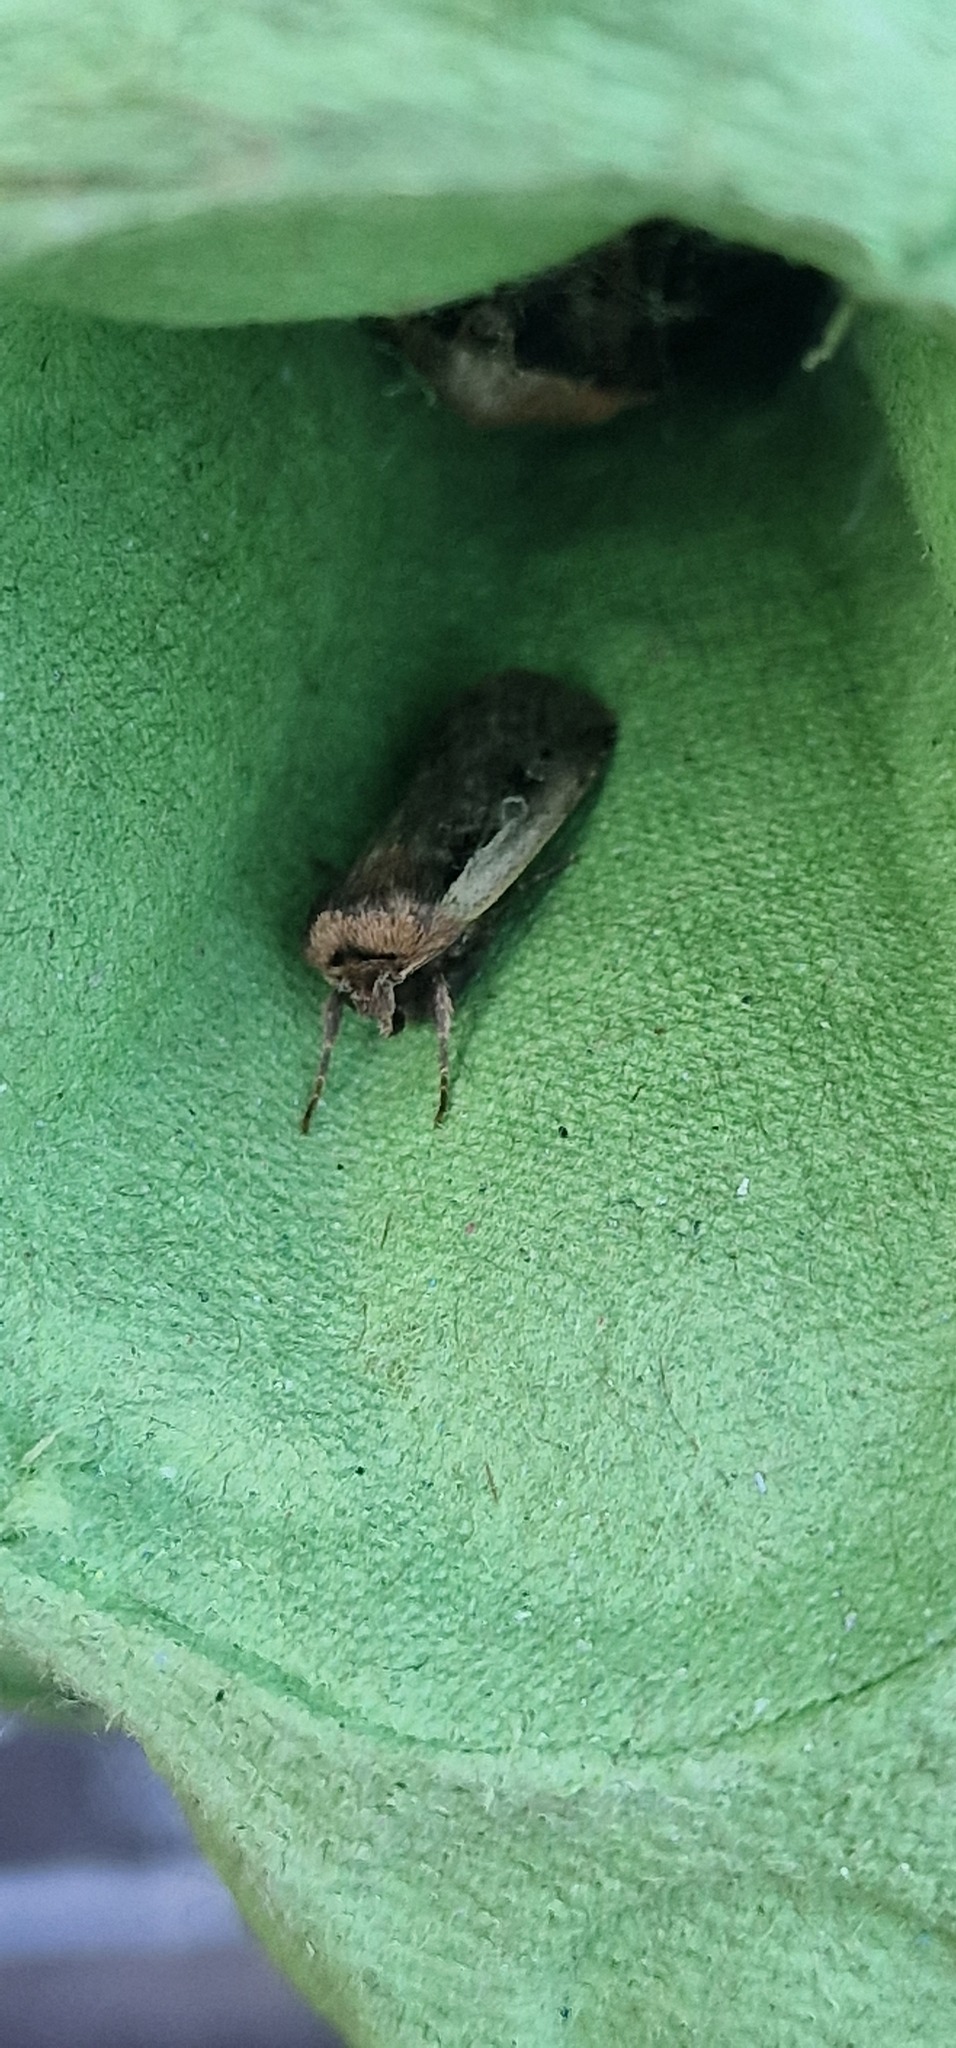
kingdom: Animalia
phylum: Arthropoda
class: Insecta
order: Lepidoptera
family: Noctuidae
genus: Ochropleura
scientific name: Ochropleura plecta
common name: Flame shoulder
